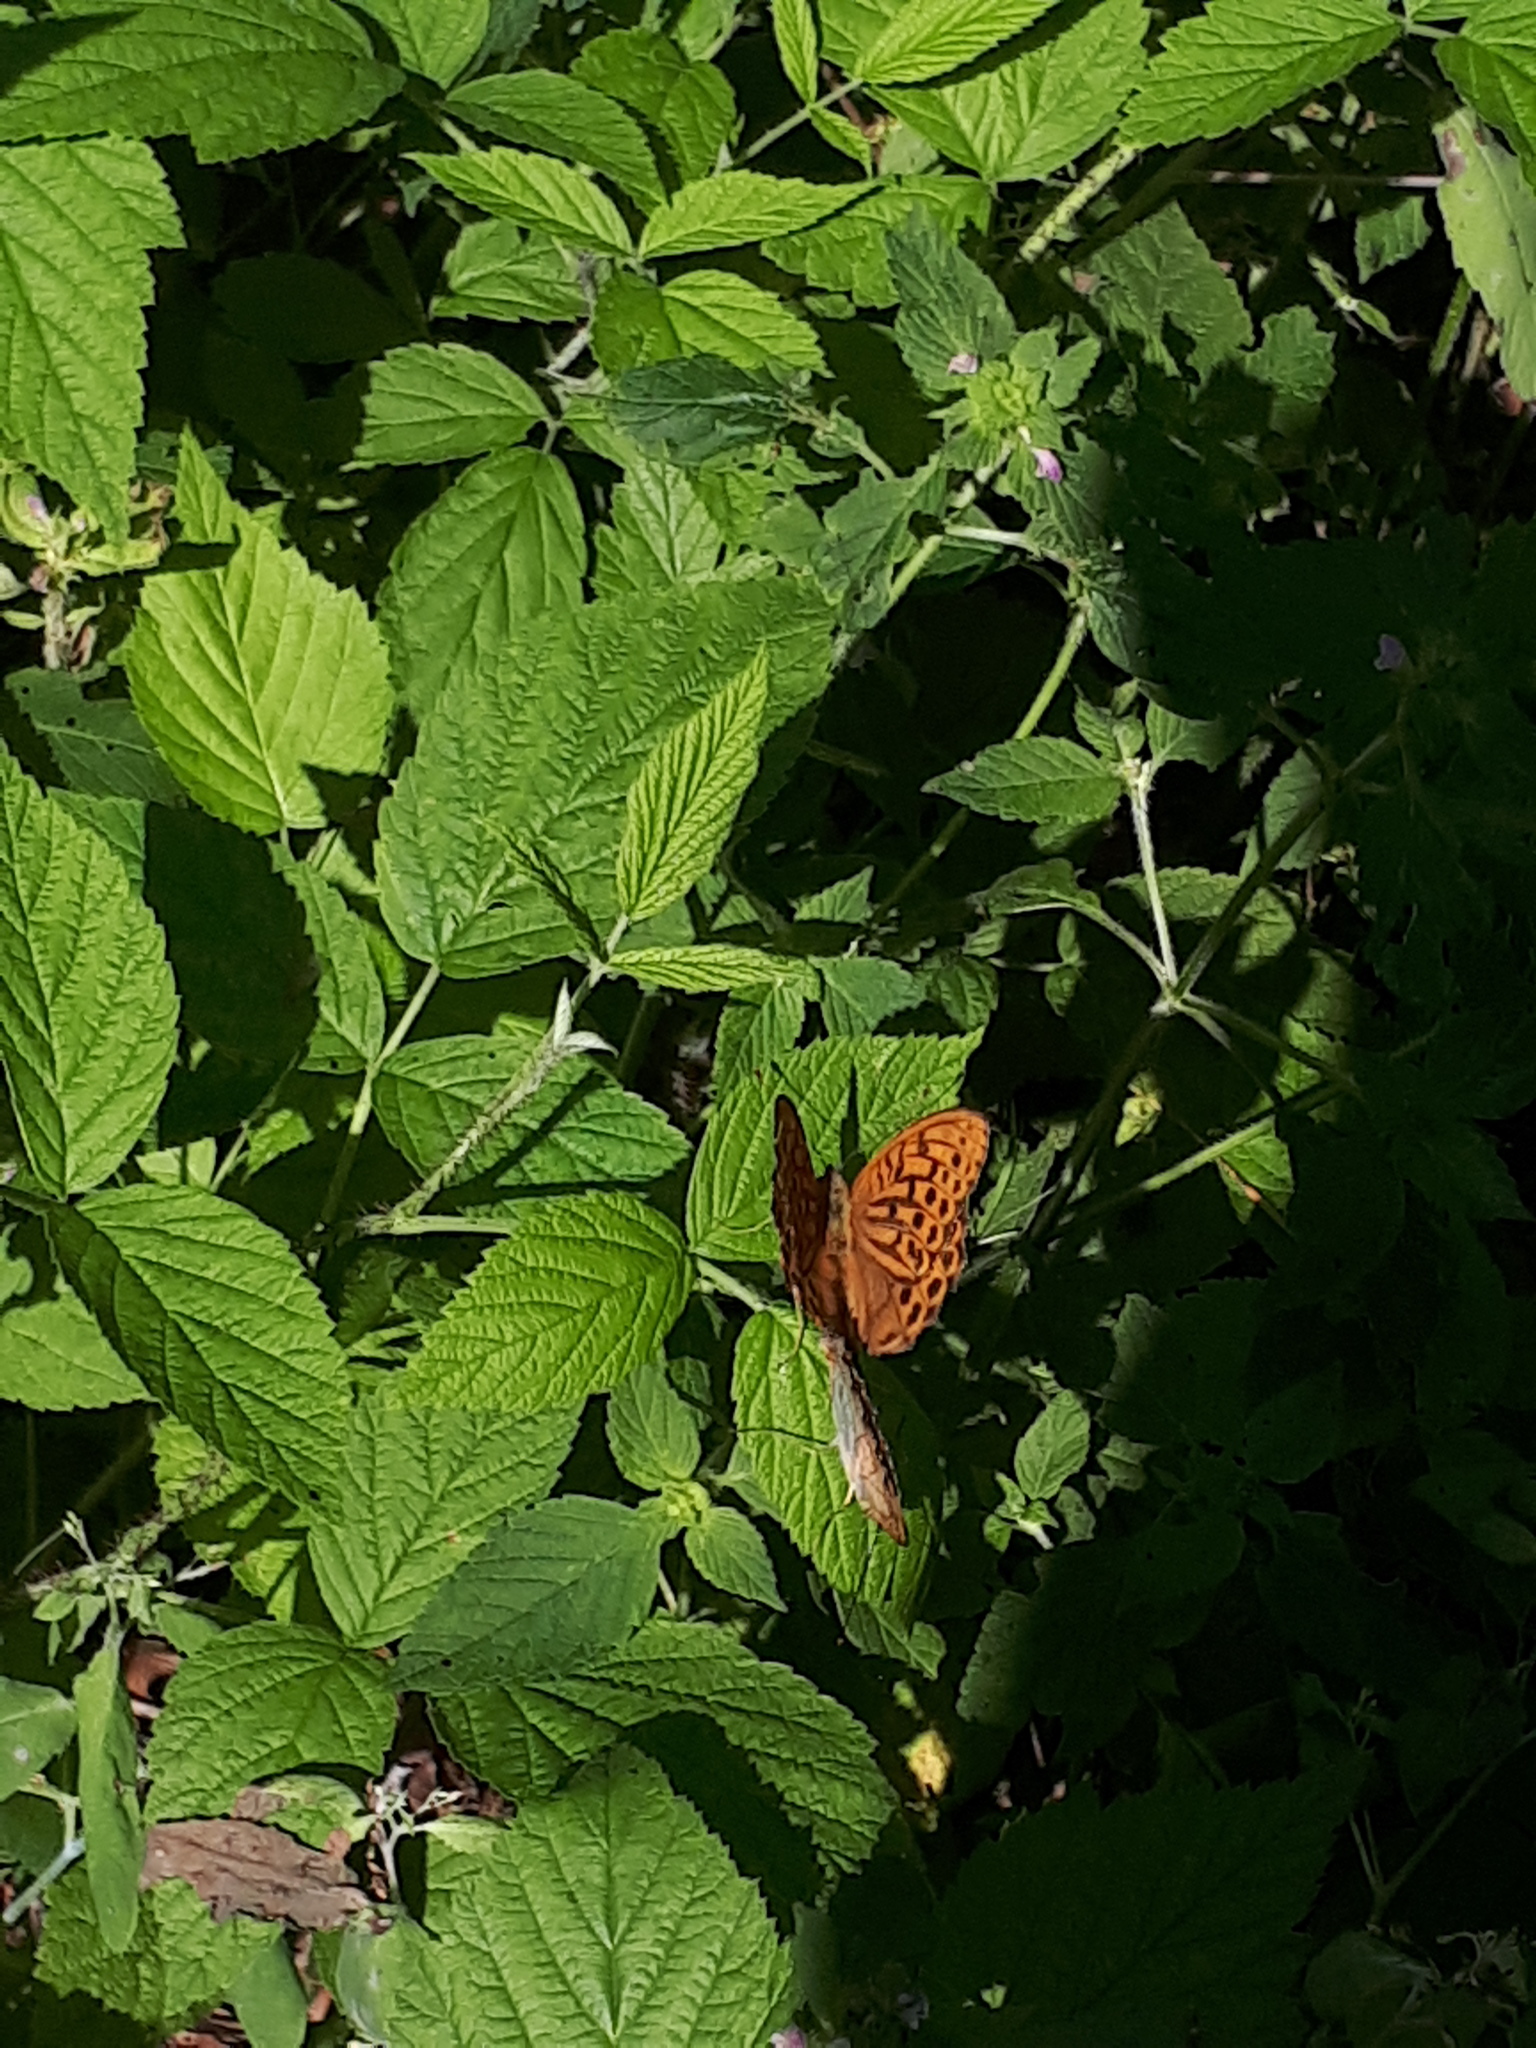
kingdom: Animalia
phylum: Arthropoda
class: Insecta
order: Lepidoptera
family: Nymphalidae
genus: Argynnis
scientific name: Argynnis paphia
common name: Silver-washed fritillary
